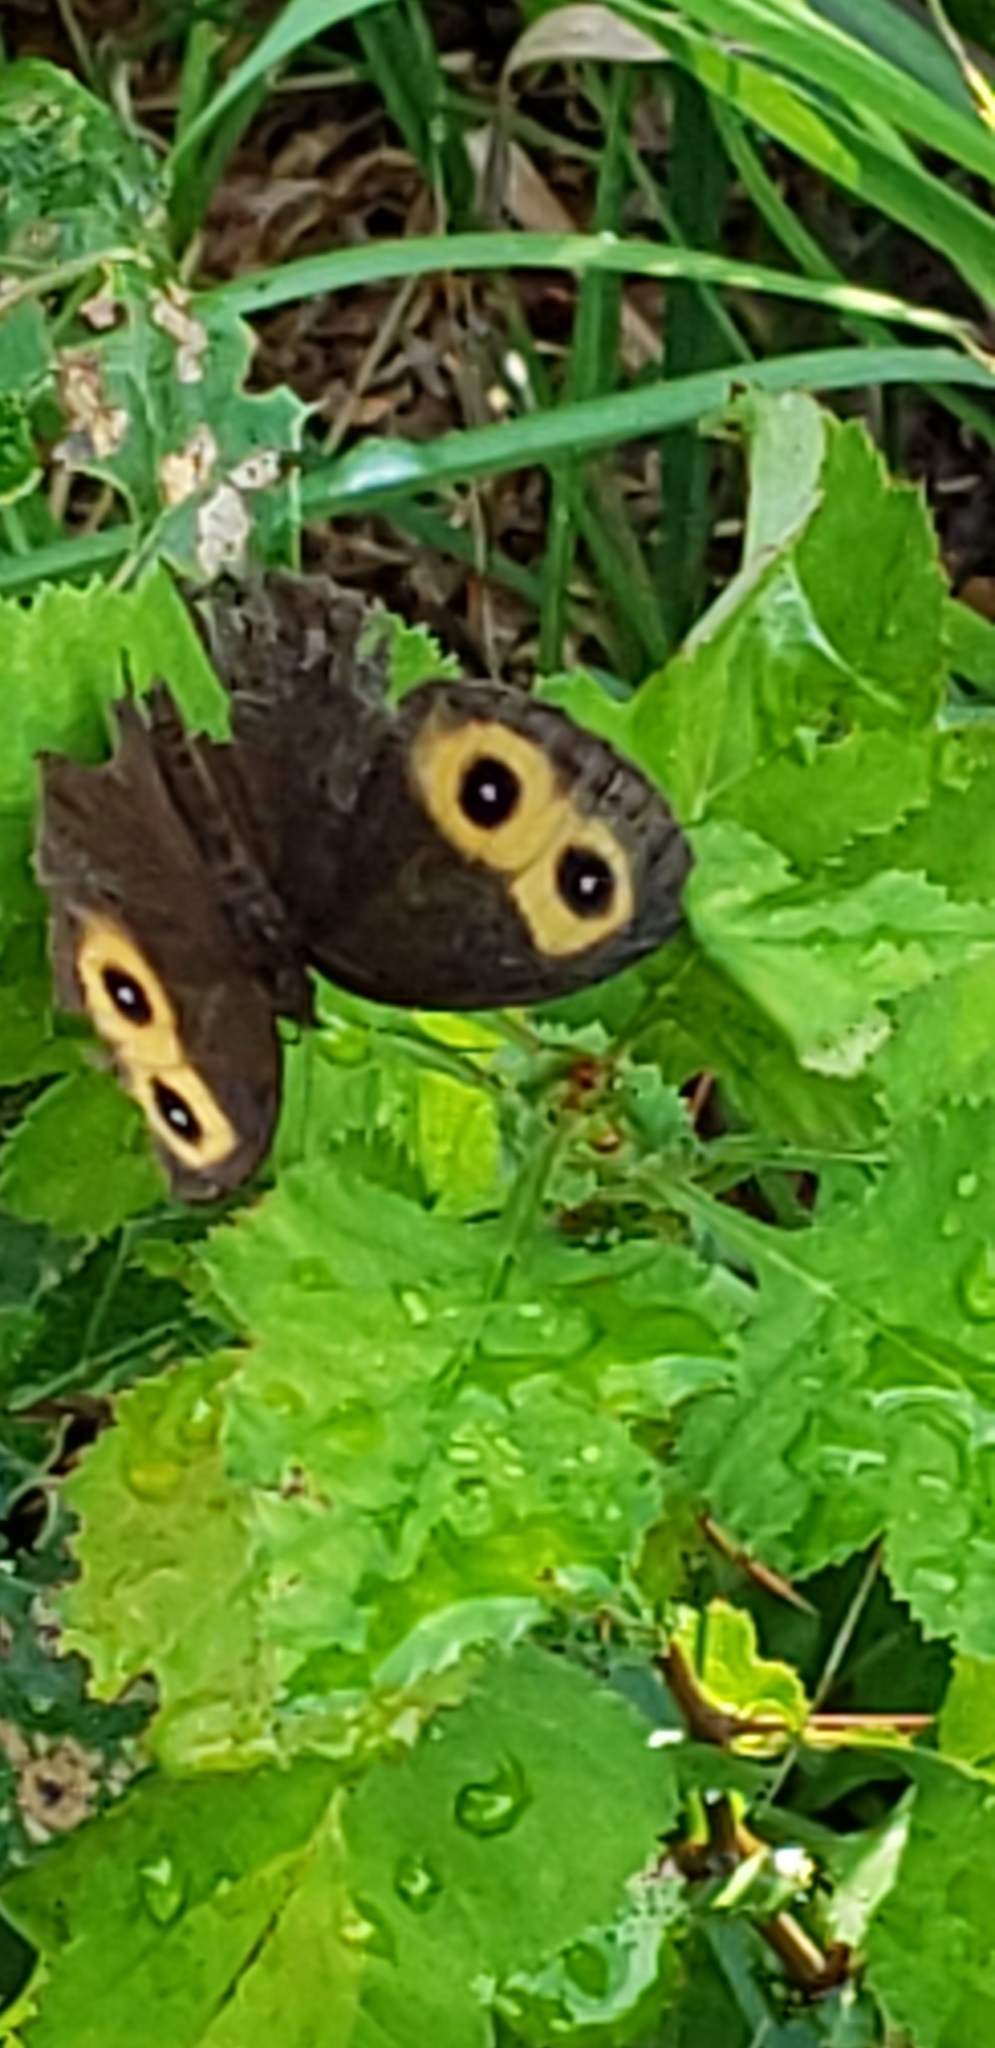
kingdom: Animalia
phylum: Arthropoda
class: Insecta
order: Lepidoptera
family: Nymphalidae
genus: Cercyonis
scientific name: Cercyonis pegala
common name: Common wood-nymph
